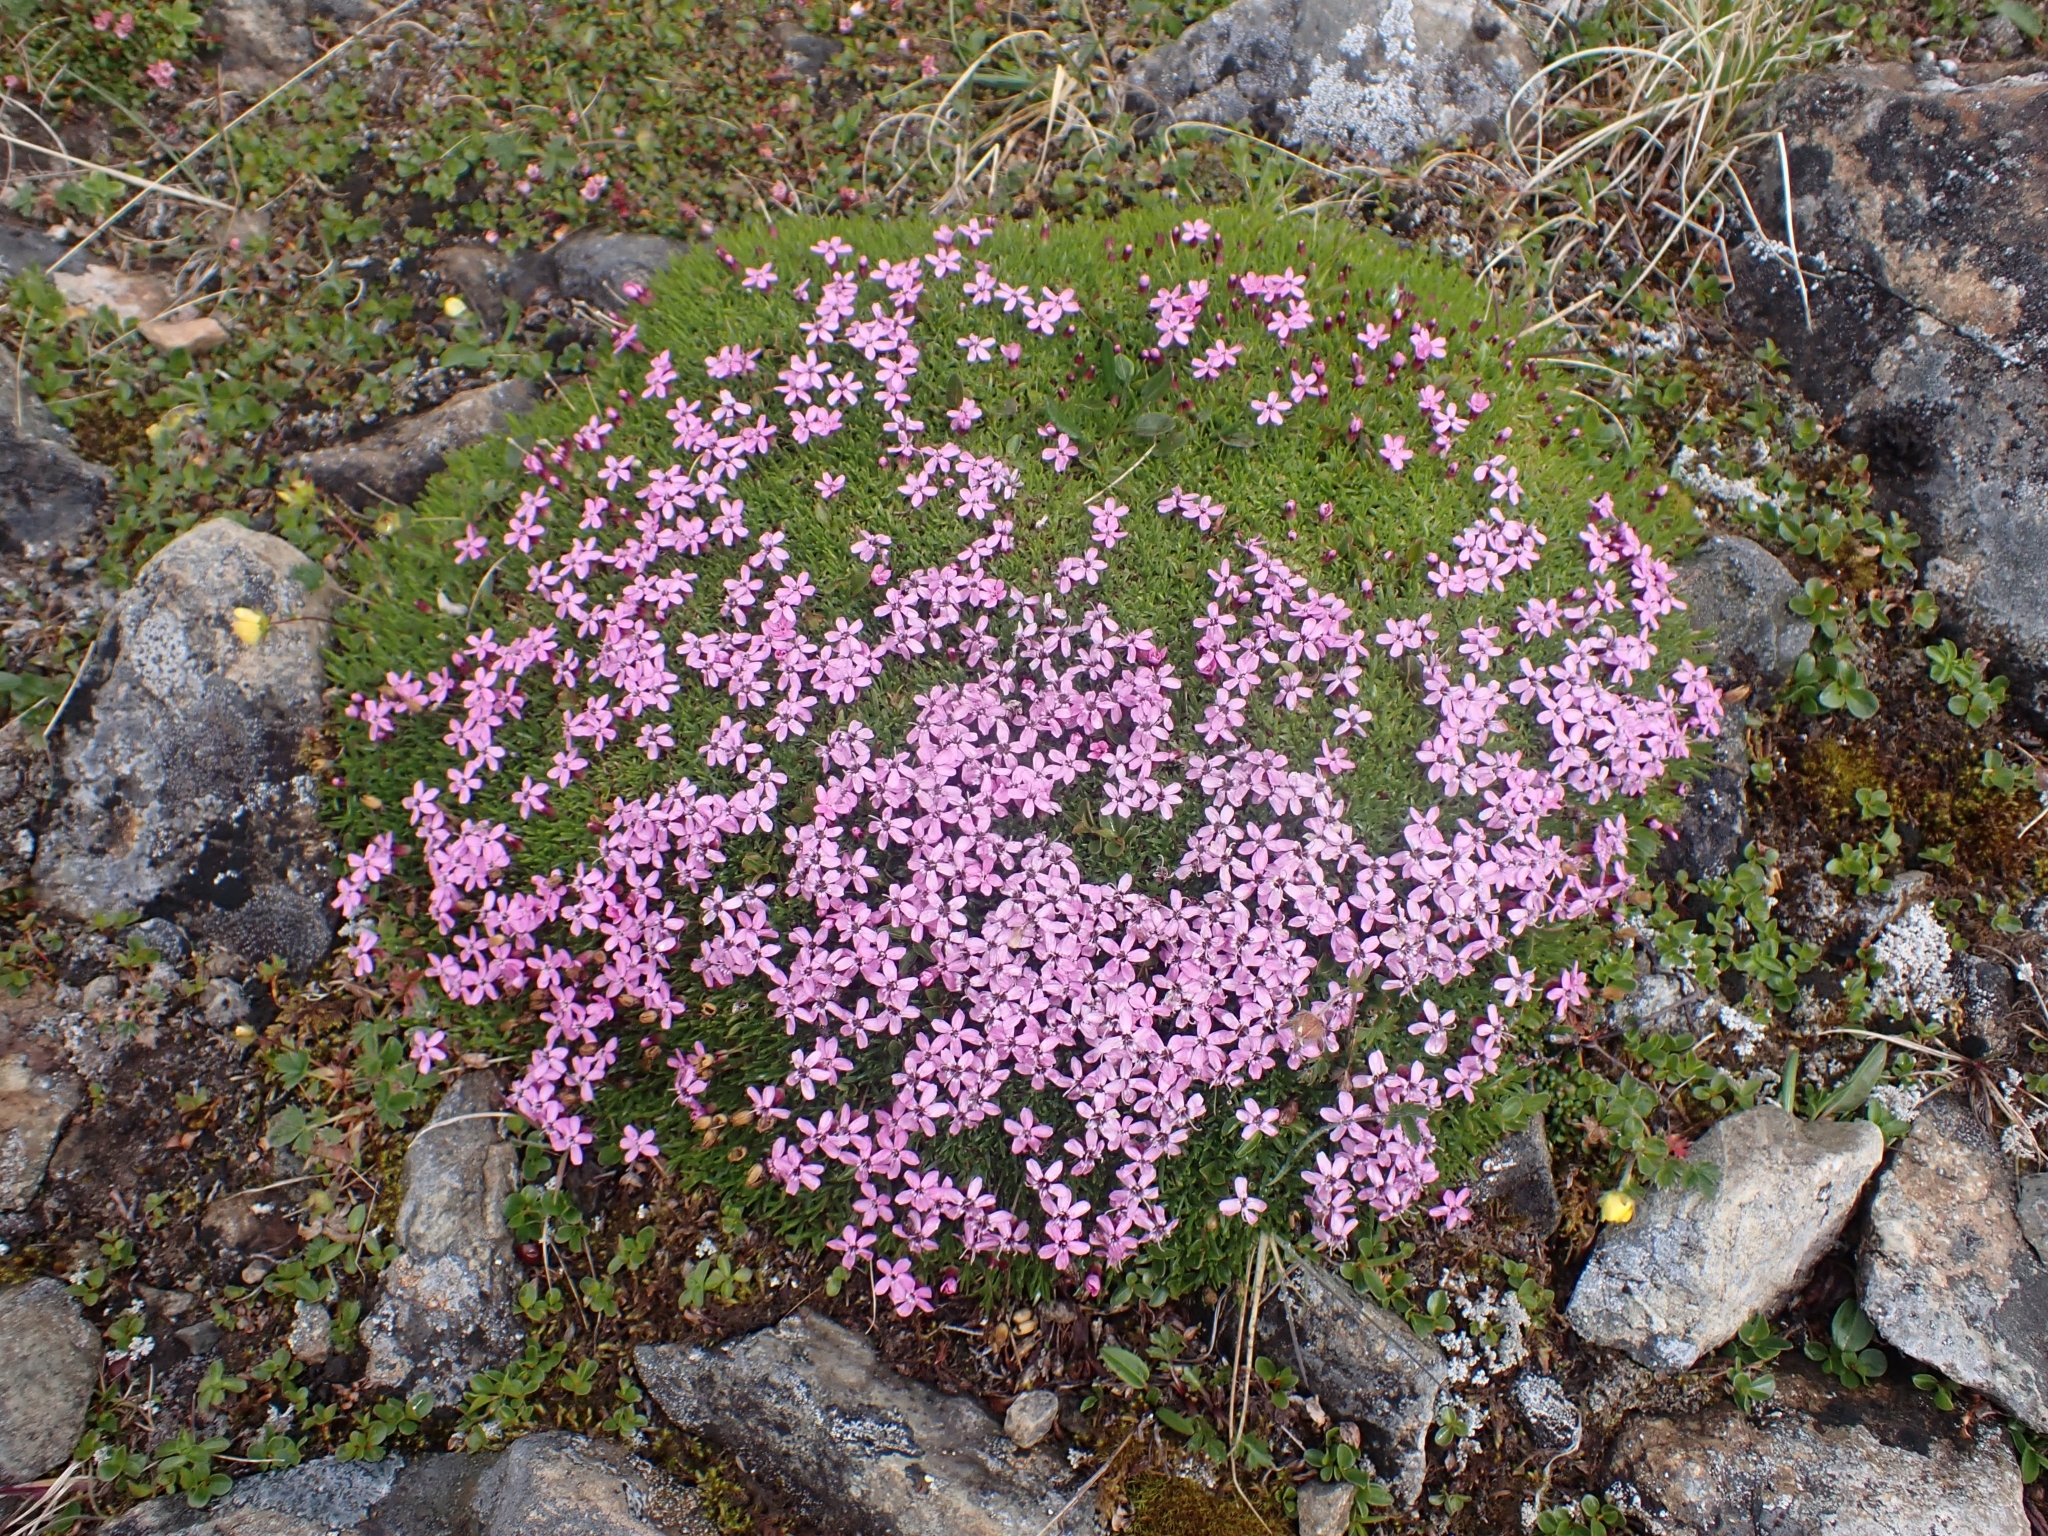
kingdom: Plantae
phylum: Tracheophyta
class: Magnoliopsida
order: Caryophyllales
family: Caryophyllaceae
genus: Silene
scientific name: Silene acaulis
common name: Moss campion
